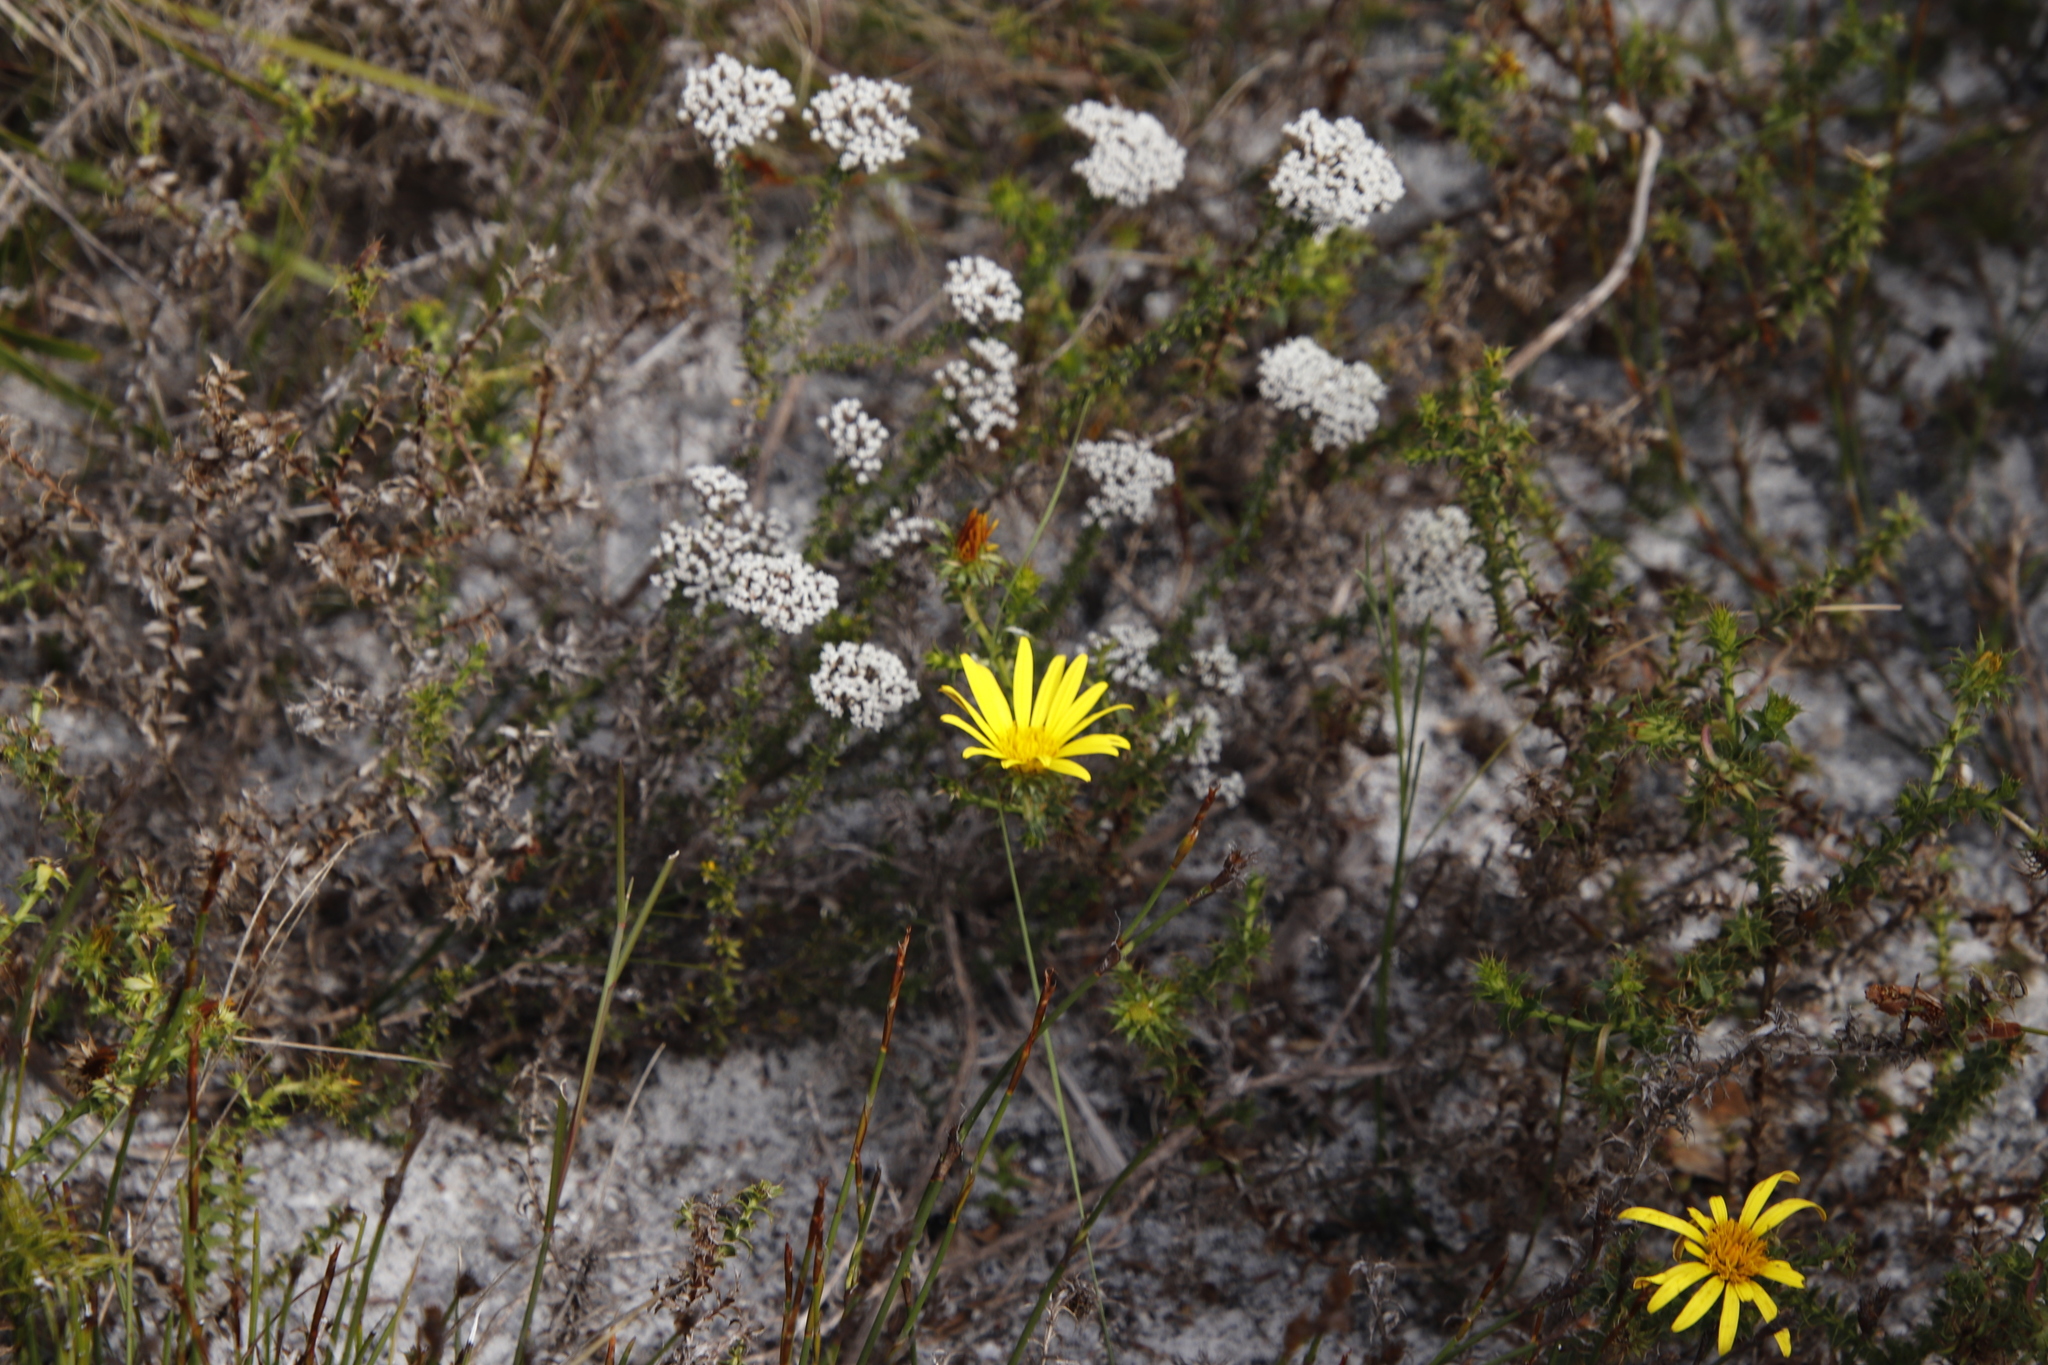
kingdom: Plantae
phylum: Tracheophyta
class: Magnoliopsida
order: Asterales
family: Asteraceae
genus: Cullumia
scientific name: Cullumia setosa
